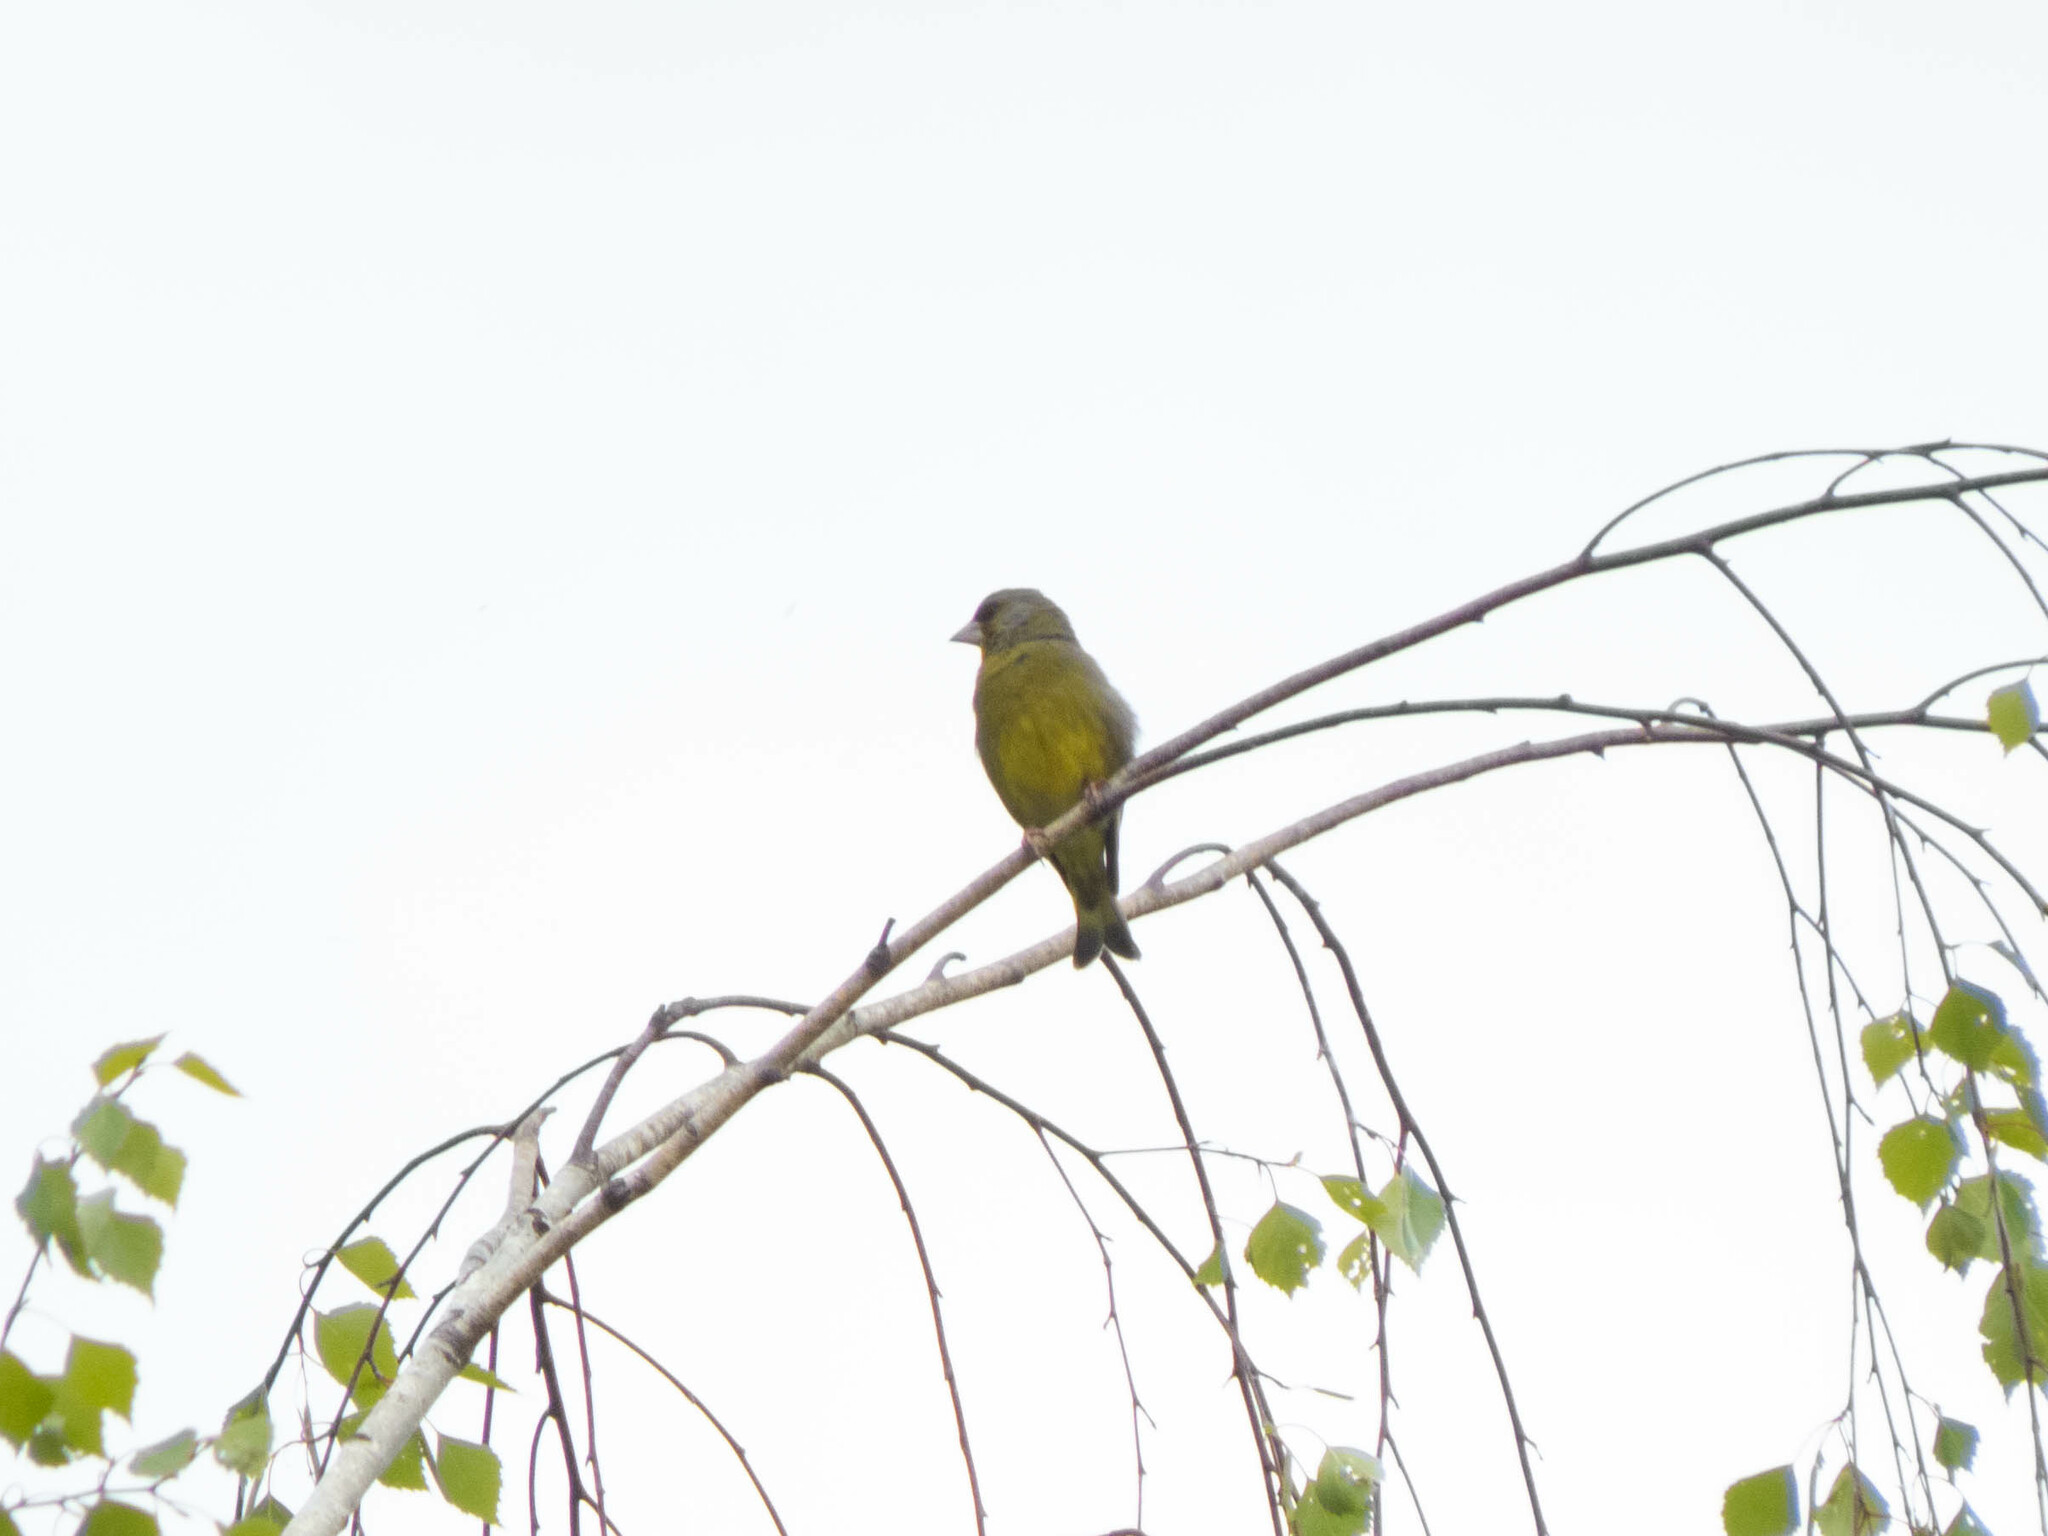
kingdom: Plantae
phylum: Tracheophyta
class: Liliopsida
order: Poales
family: Poaceae
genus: Chloris
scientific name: Chloris chloris
